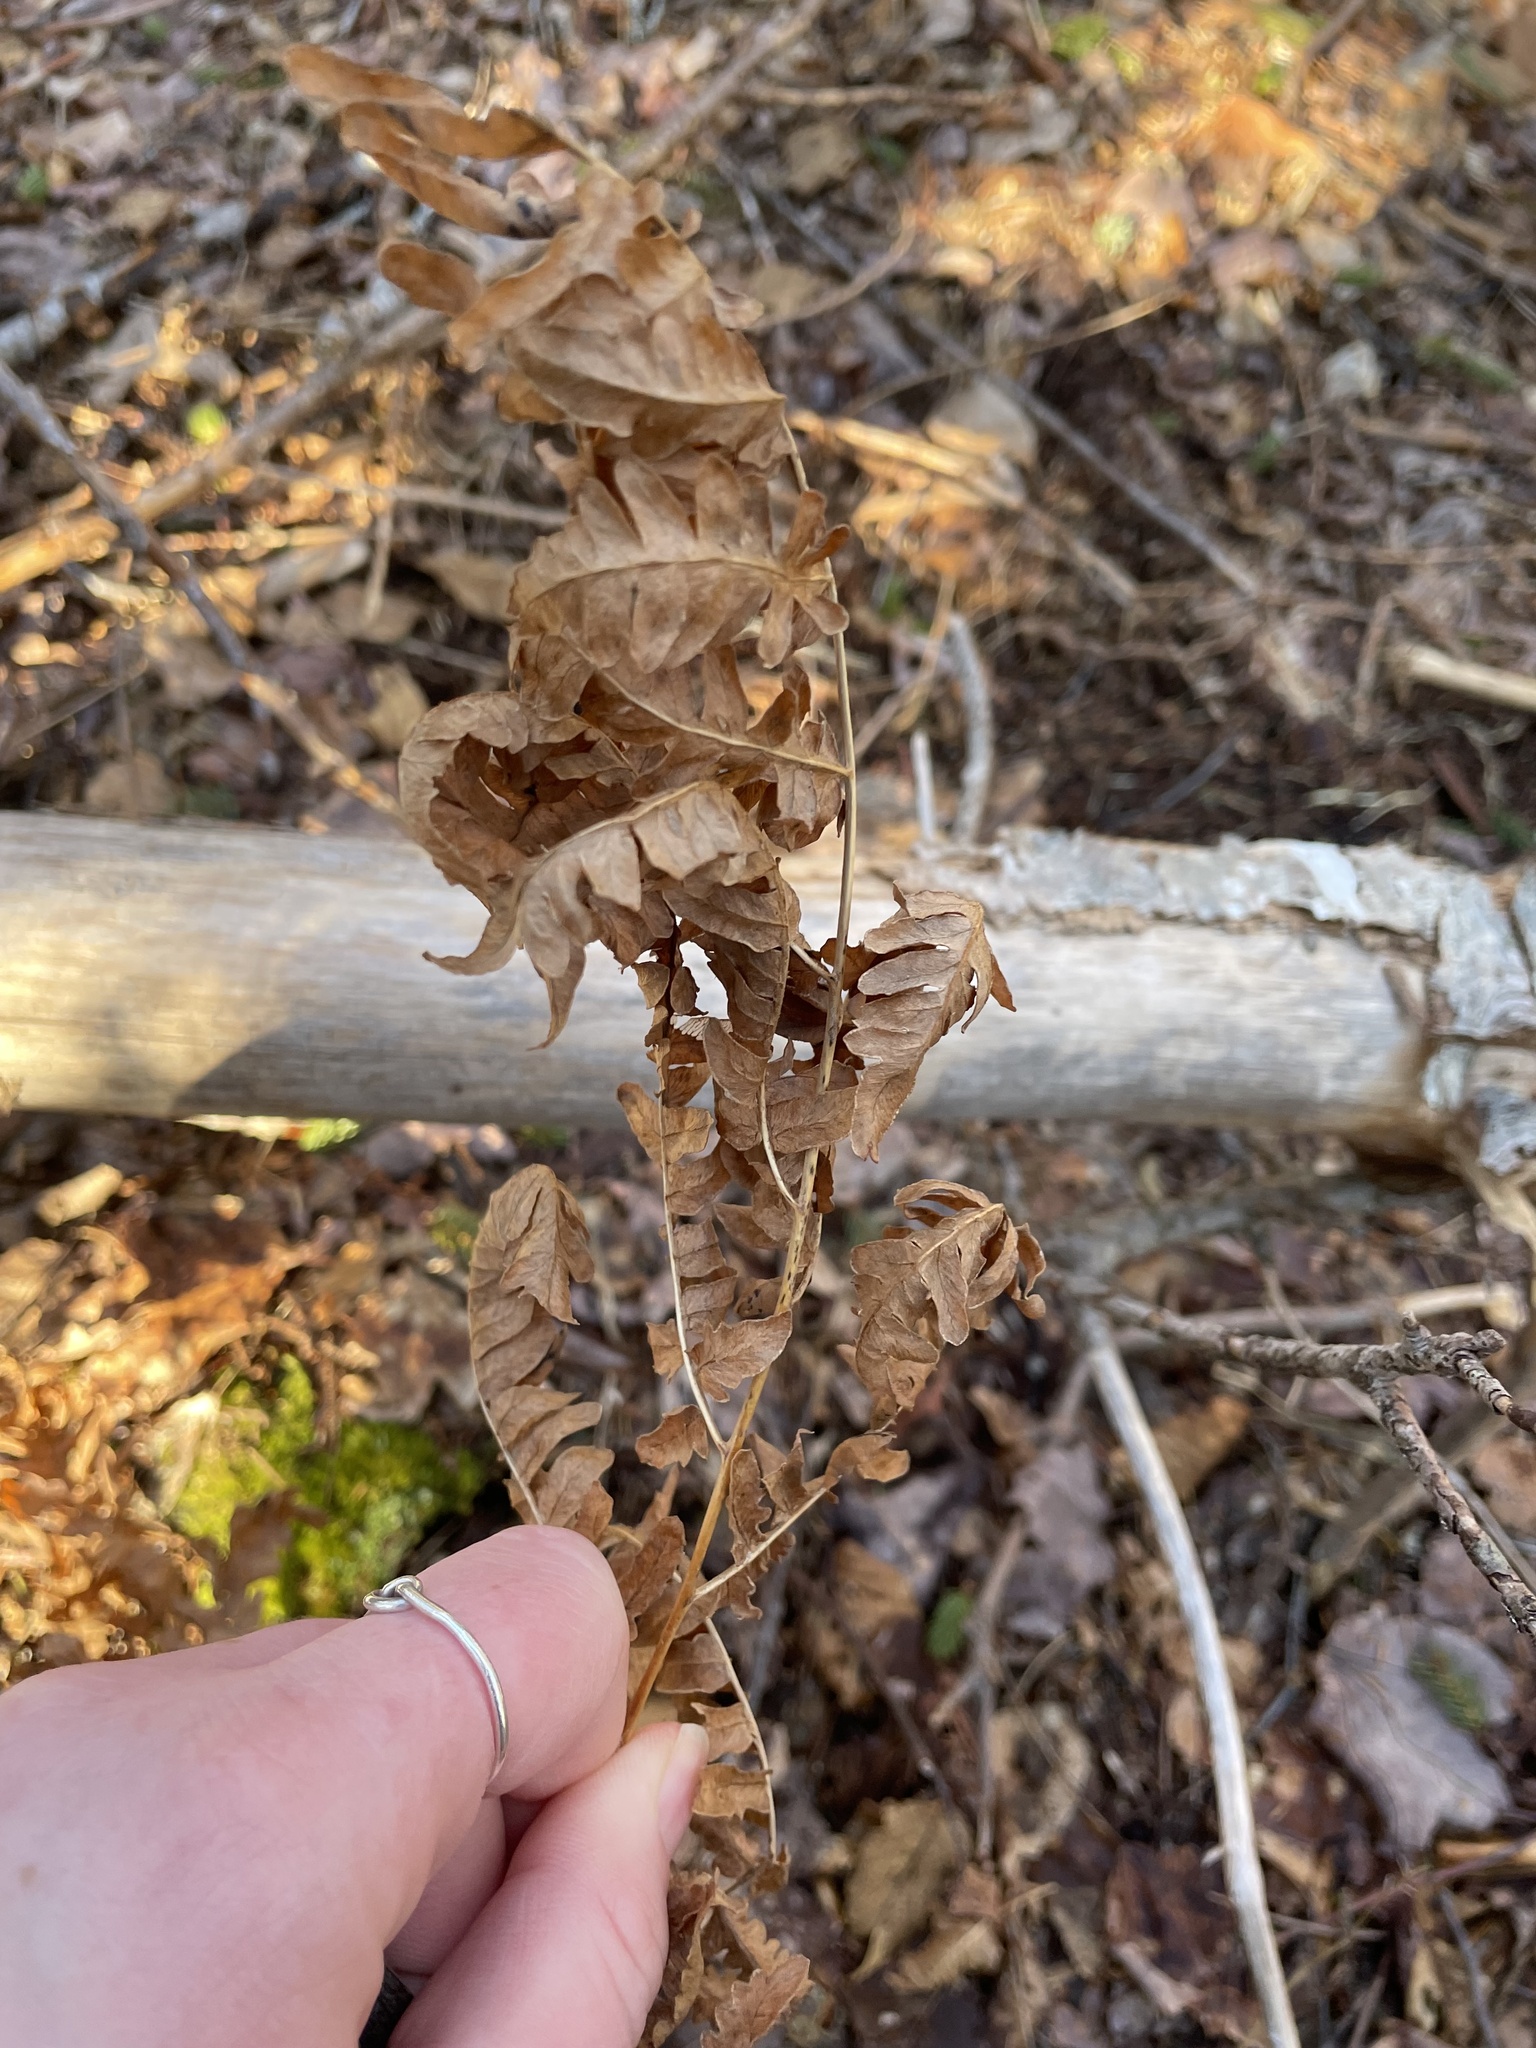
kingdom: Plantae
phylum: Tracheophyta
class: Polypodiopsida
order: Polypodiales
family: Dennstaedtiaceae
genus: Pteridium
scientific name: Pteridium aquilinum
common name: Bracken
